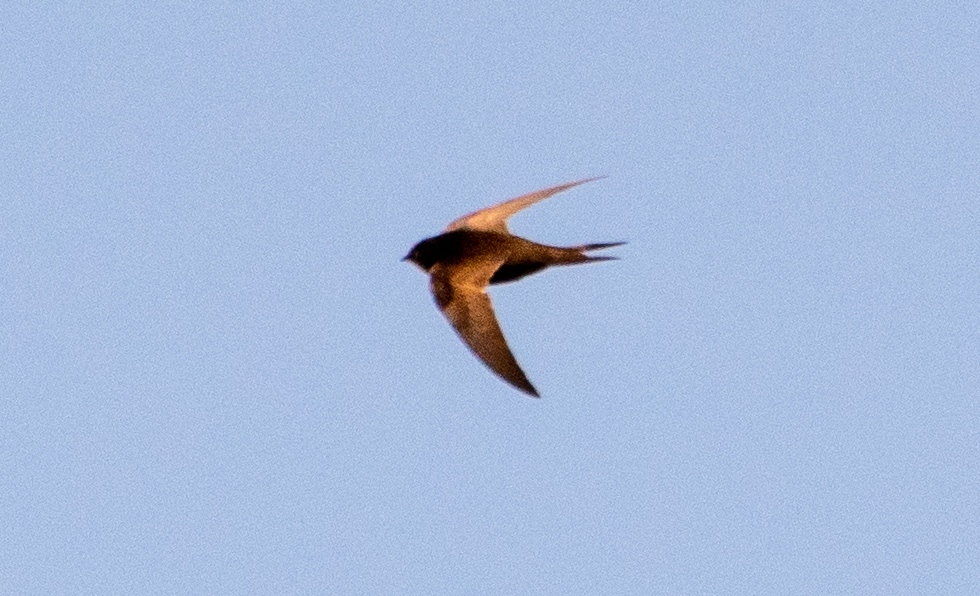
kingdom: Animalia
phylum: Chordata
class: Aves
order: Apodiformes
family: Apodidae
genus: Apus
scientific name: Apus apus
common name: Common swift
